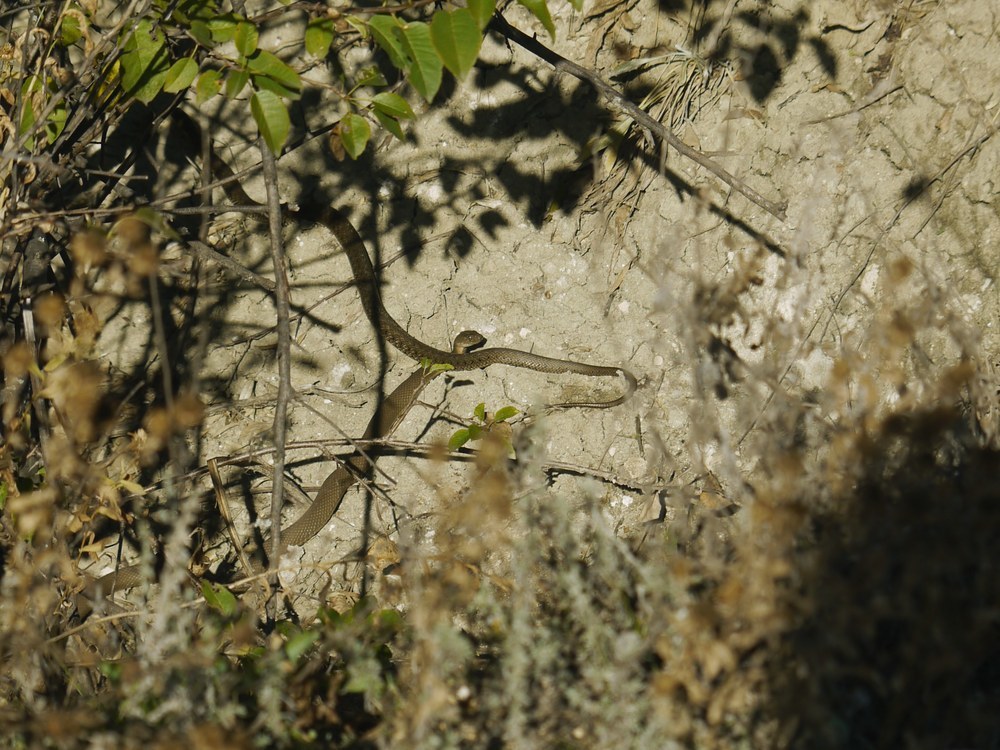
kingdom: Animalia
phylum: Chordata
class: Squamata
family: Colubridae
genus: Natrix
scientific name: Natrix tessellata
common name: Dice snake
